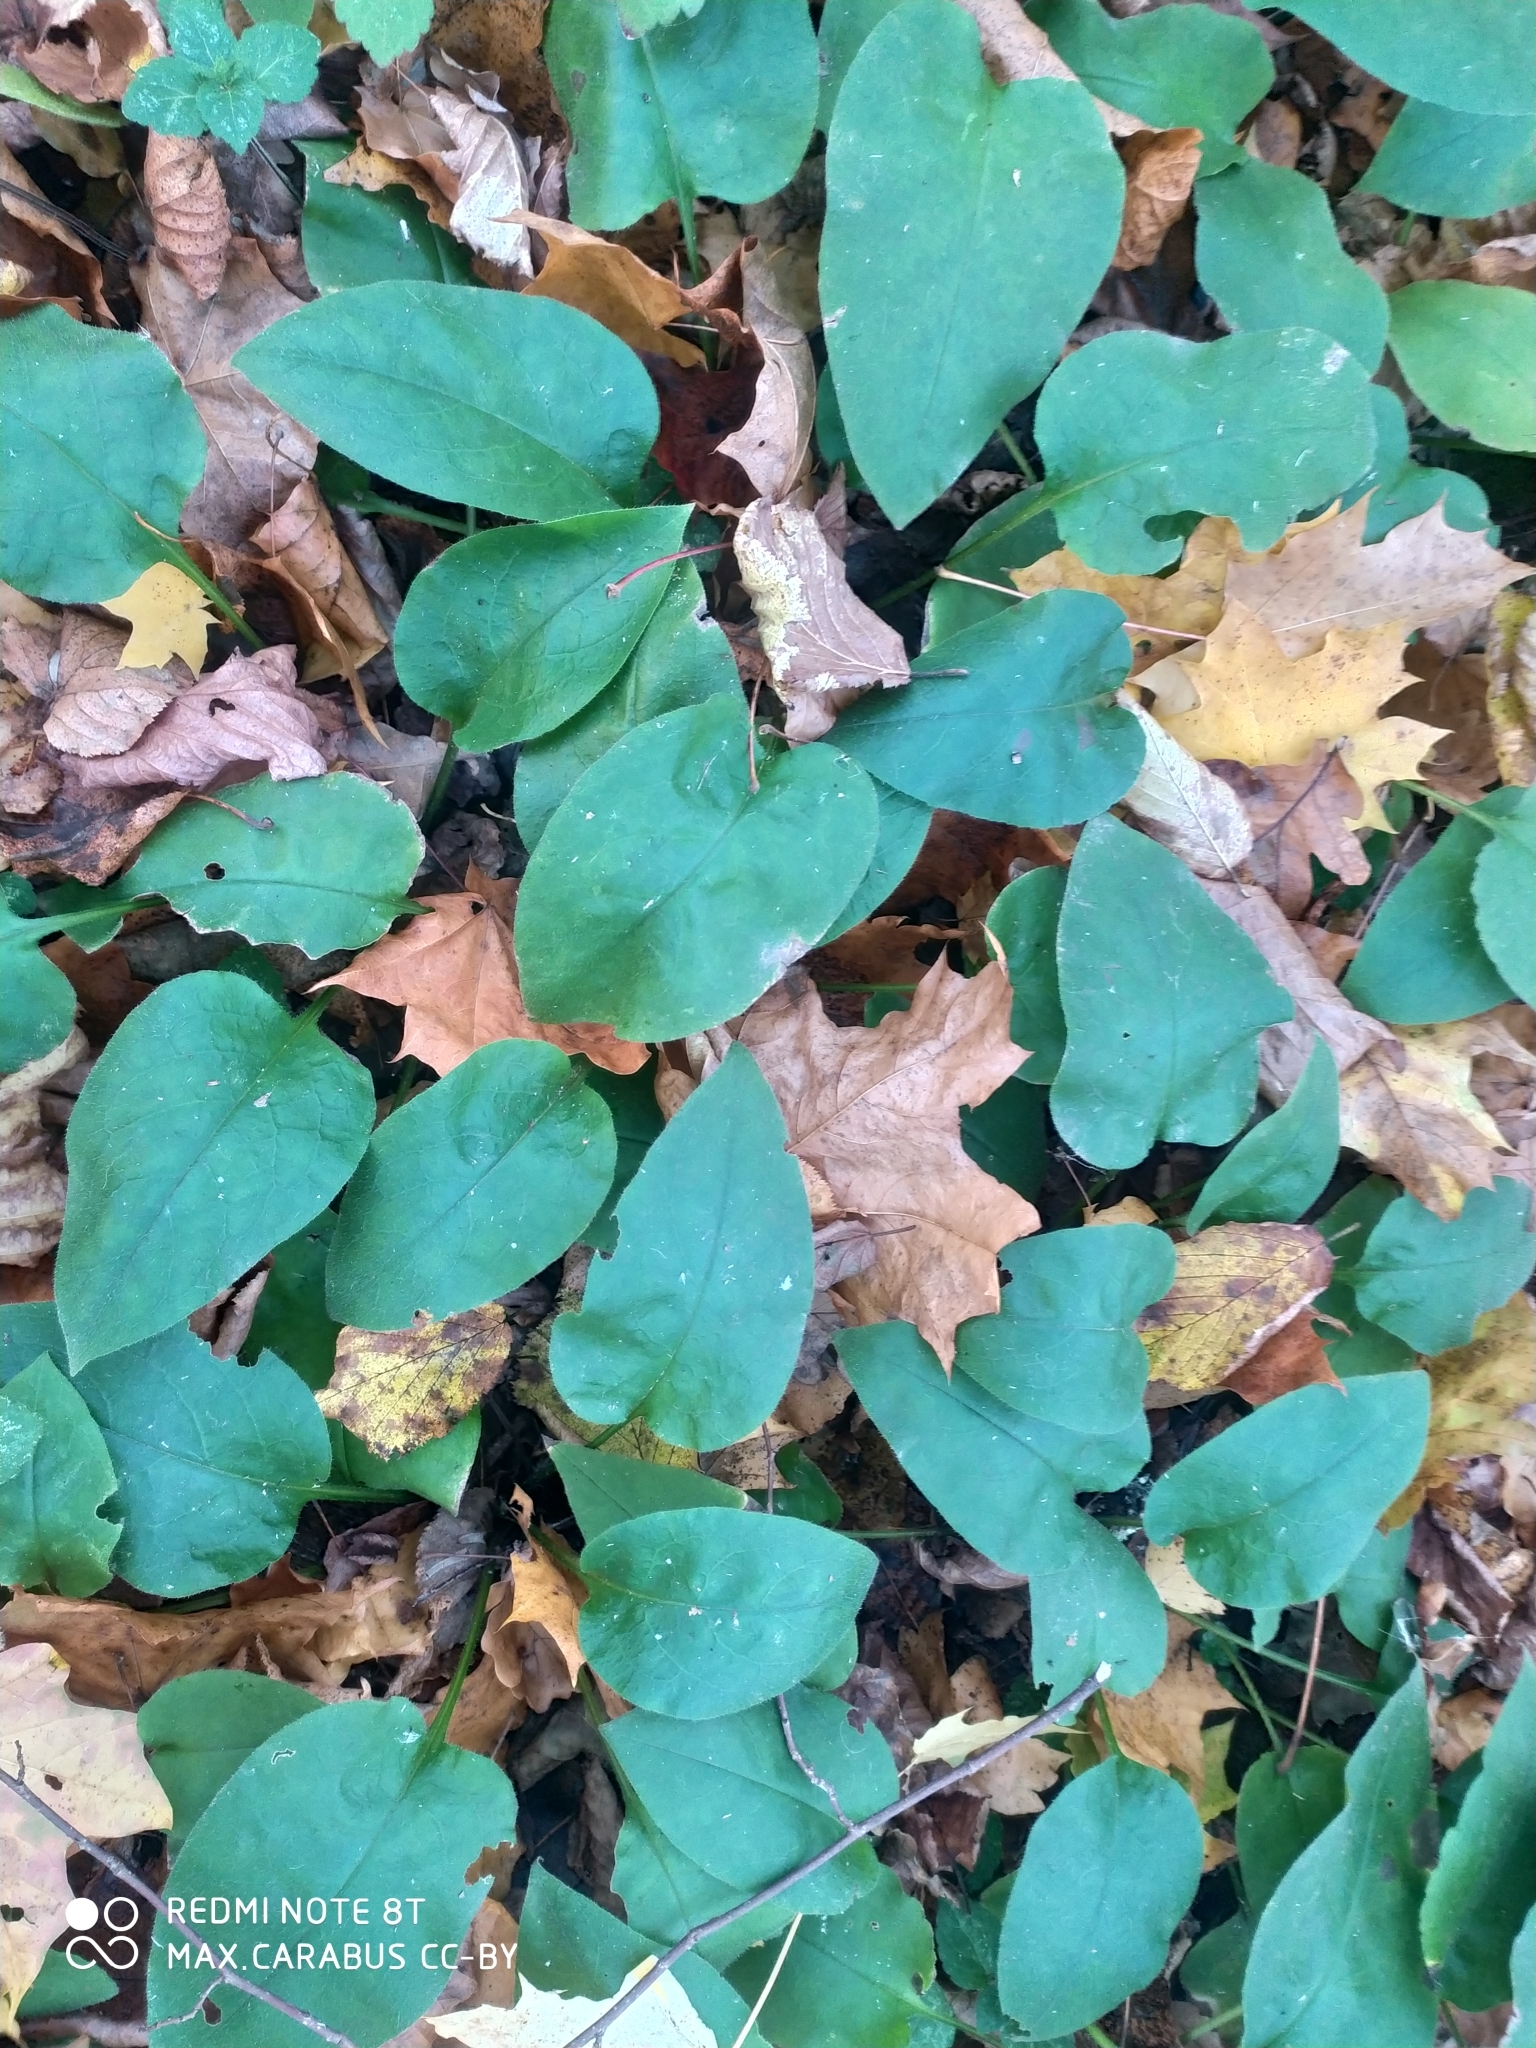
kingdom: Plantae
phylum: Tracheophyta
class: Magnoliopsida
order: Boraginales
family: Boraginaceae
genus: Pulmonaria
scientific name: Pulmonaria obscura
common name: Suffolk lungwort
